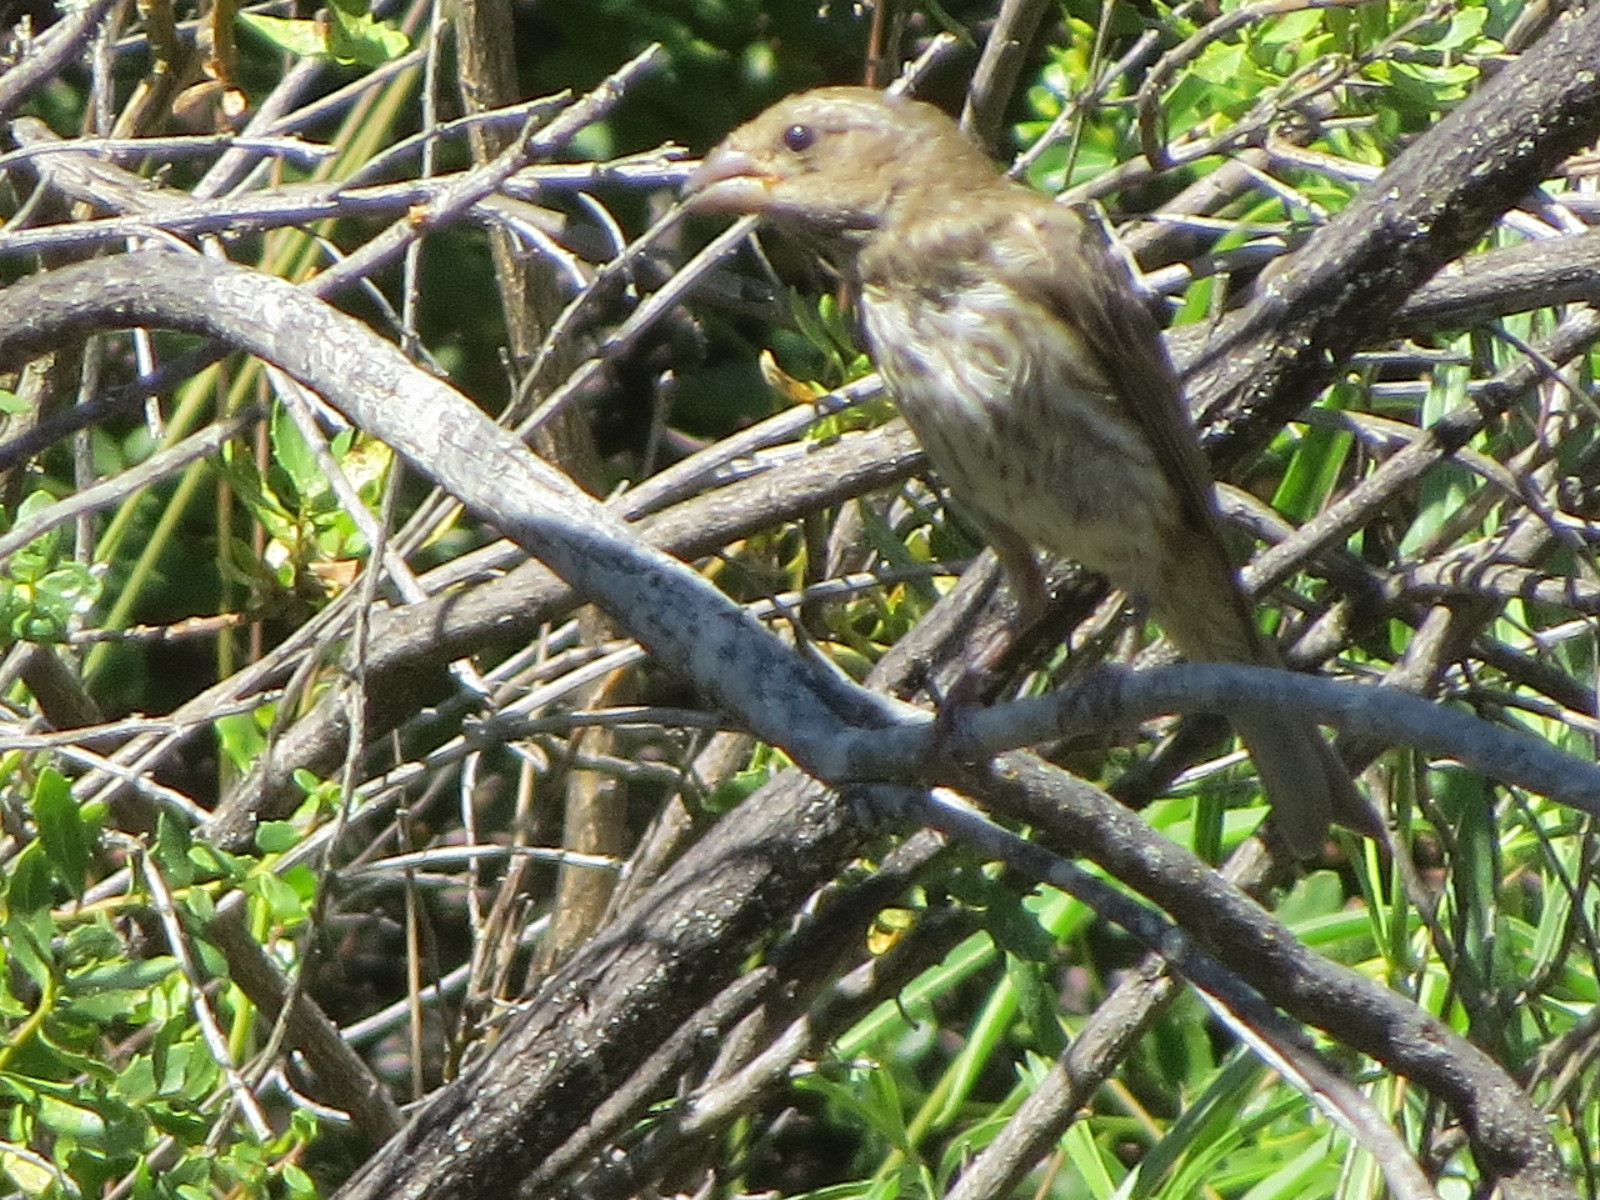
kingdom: Animalia
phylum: Chordata
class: Aves
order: Passeriformes
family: Fringillidae
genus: Haemorhous
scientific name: Haemorhous purpureus
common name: Purple finch
